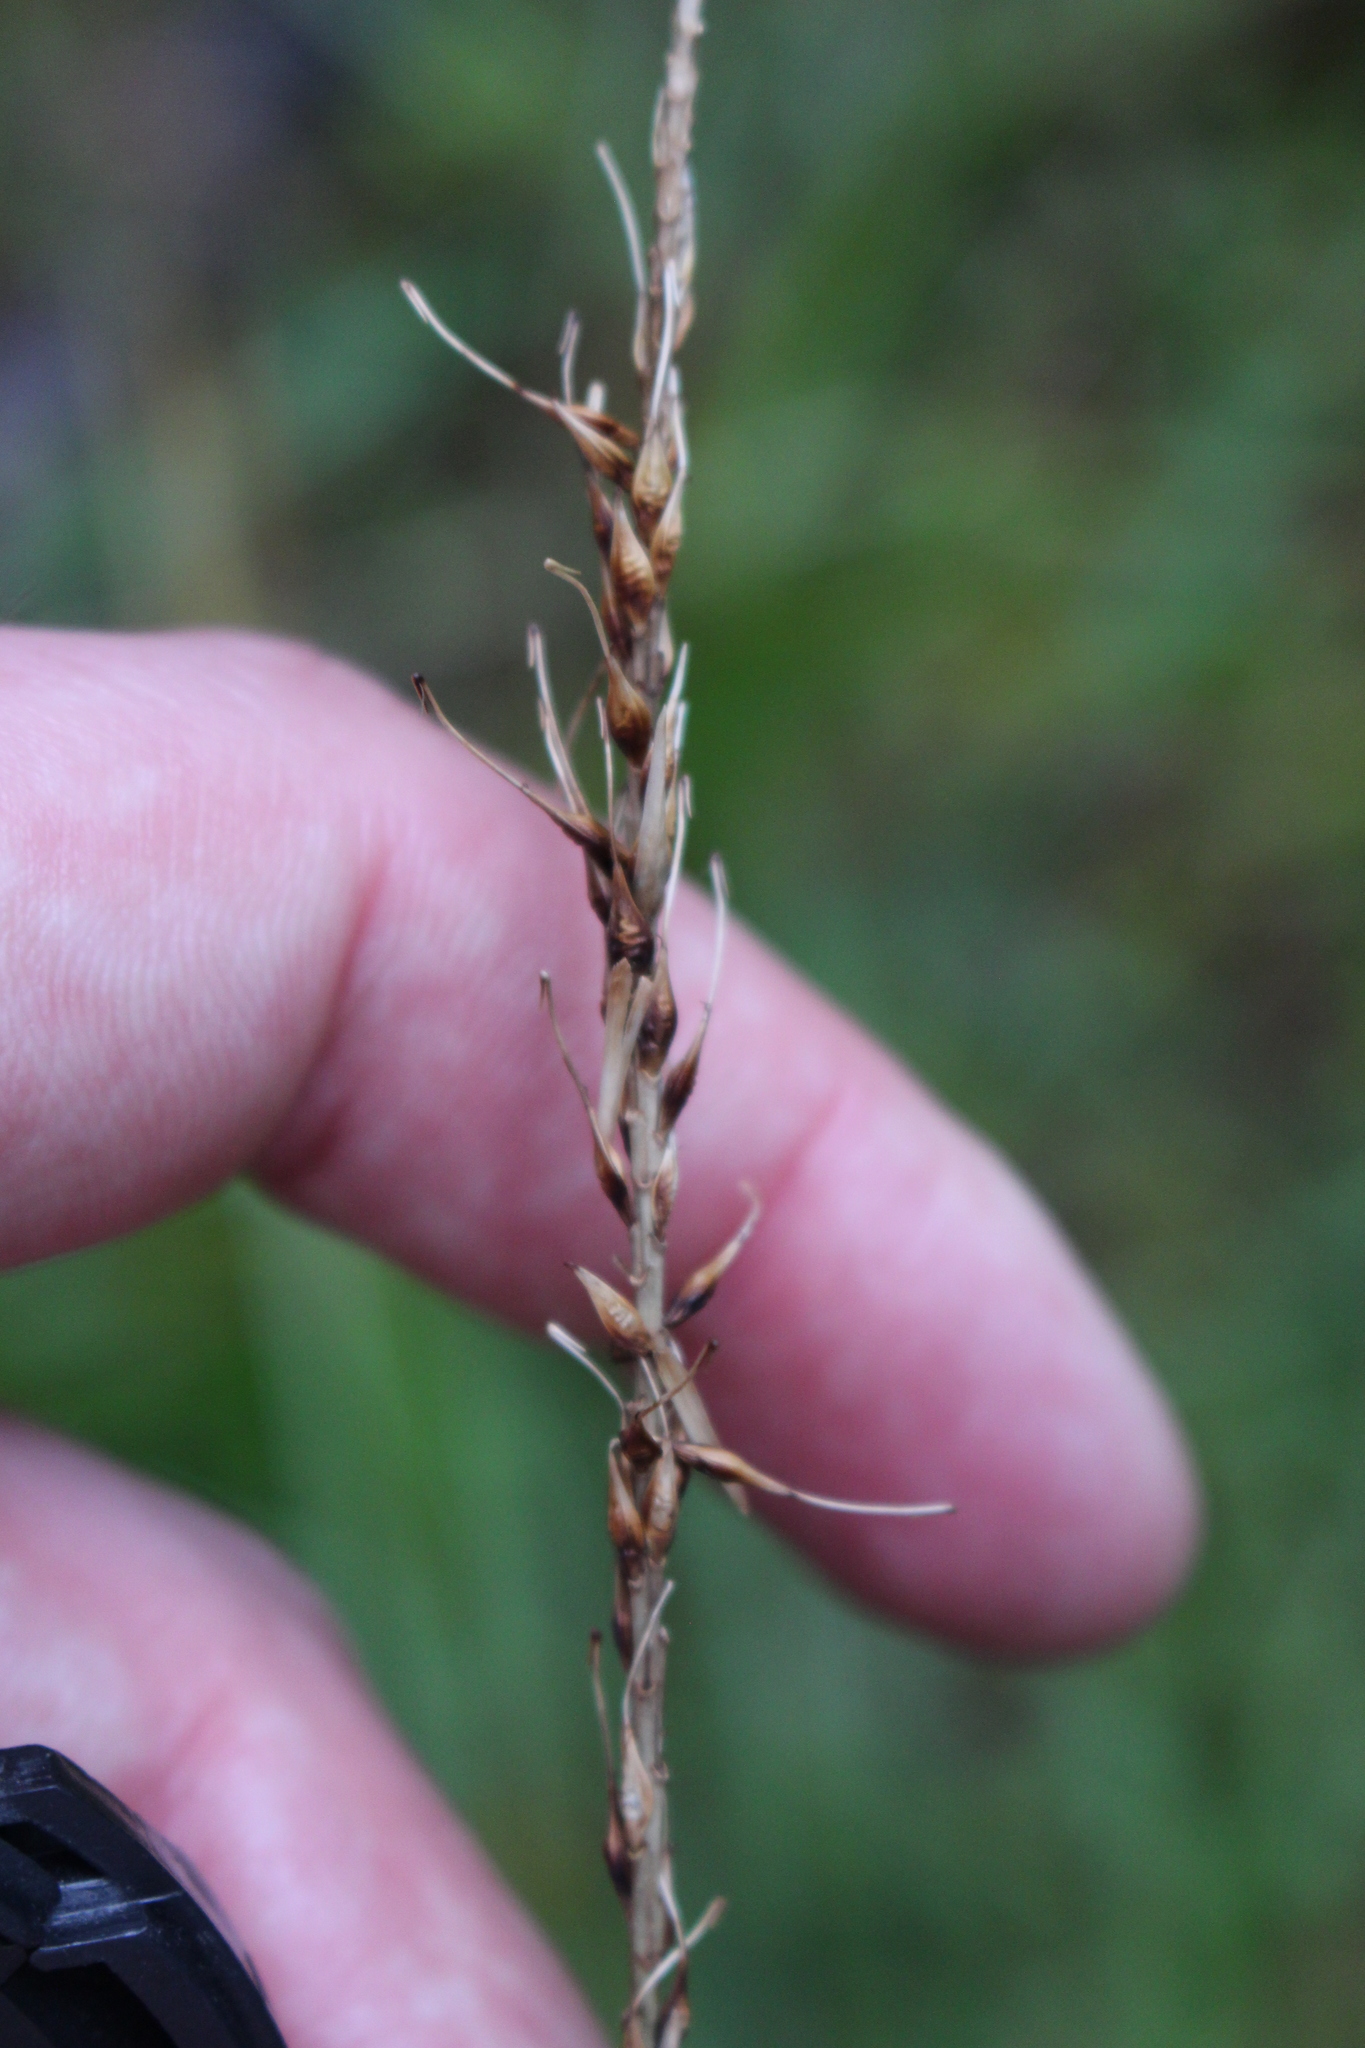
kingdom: Plantae
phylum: Tracheophyta
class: Liliopsida
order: Poales
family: Cyperaceae
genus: Carex
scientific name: Carex megalepis
